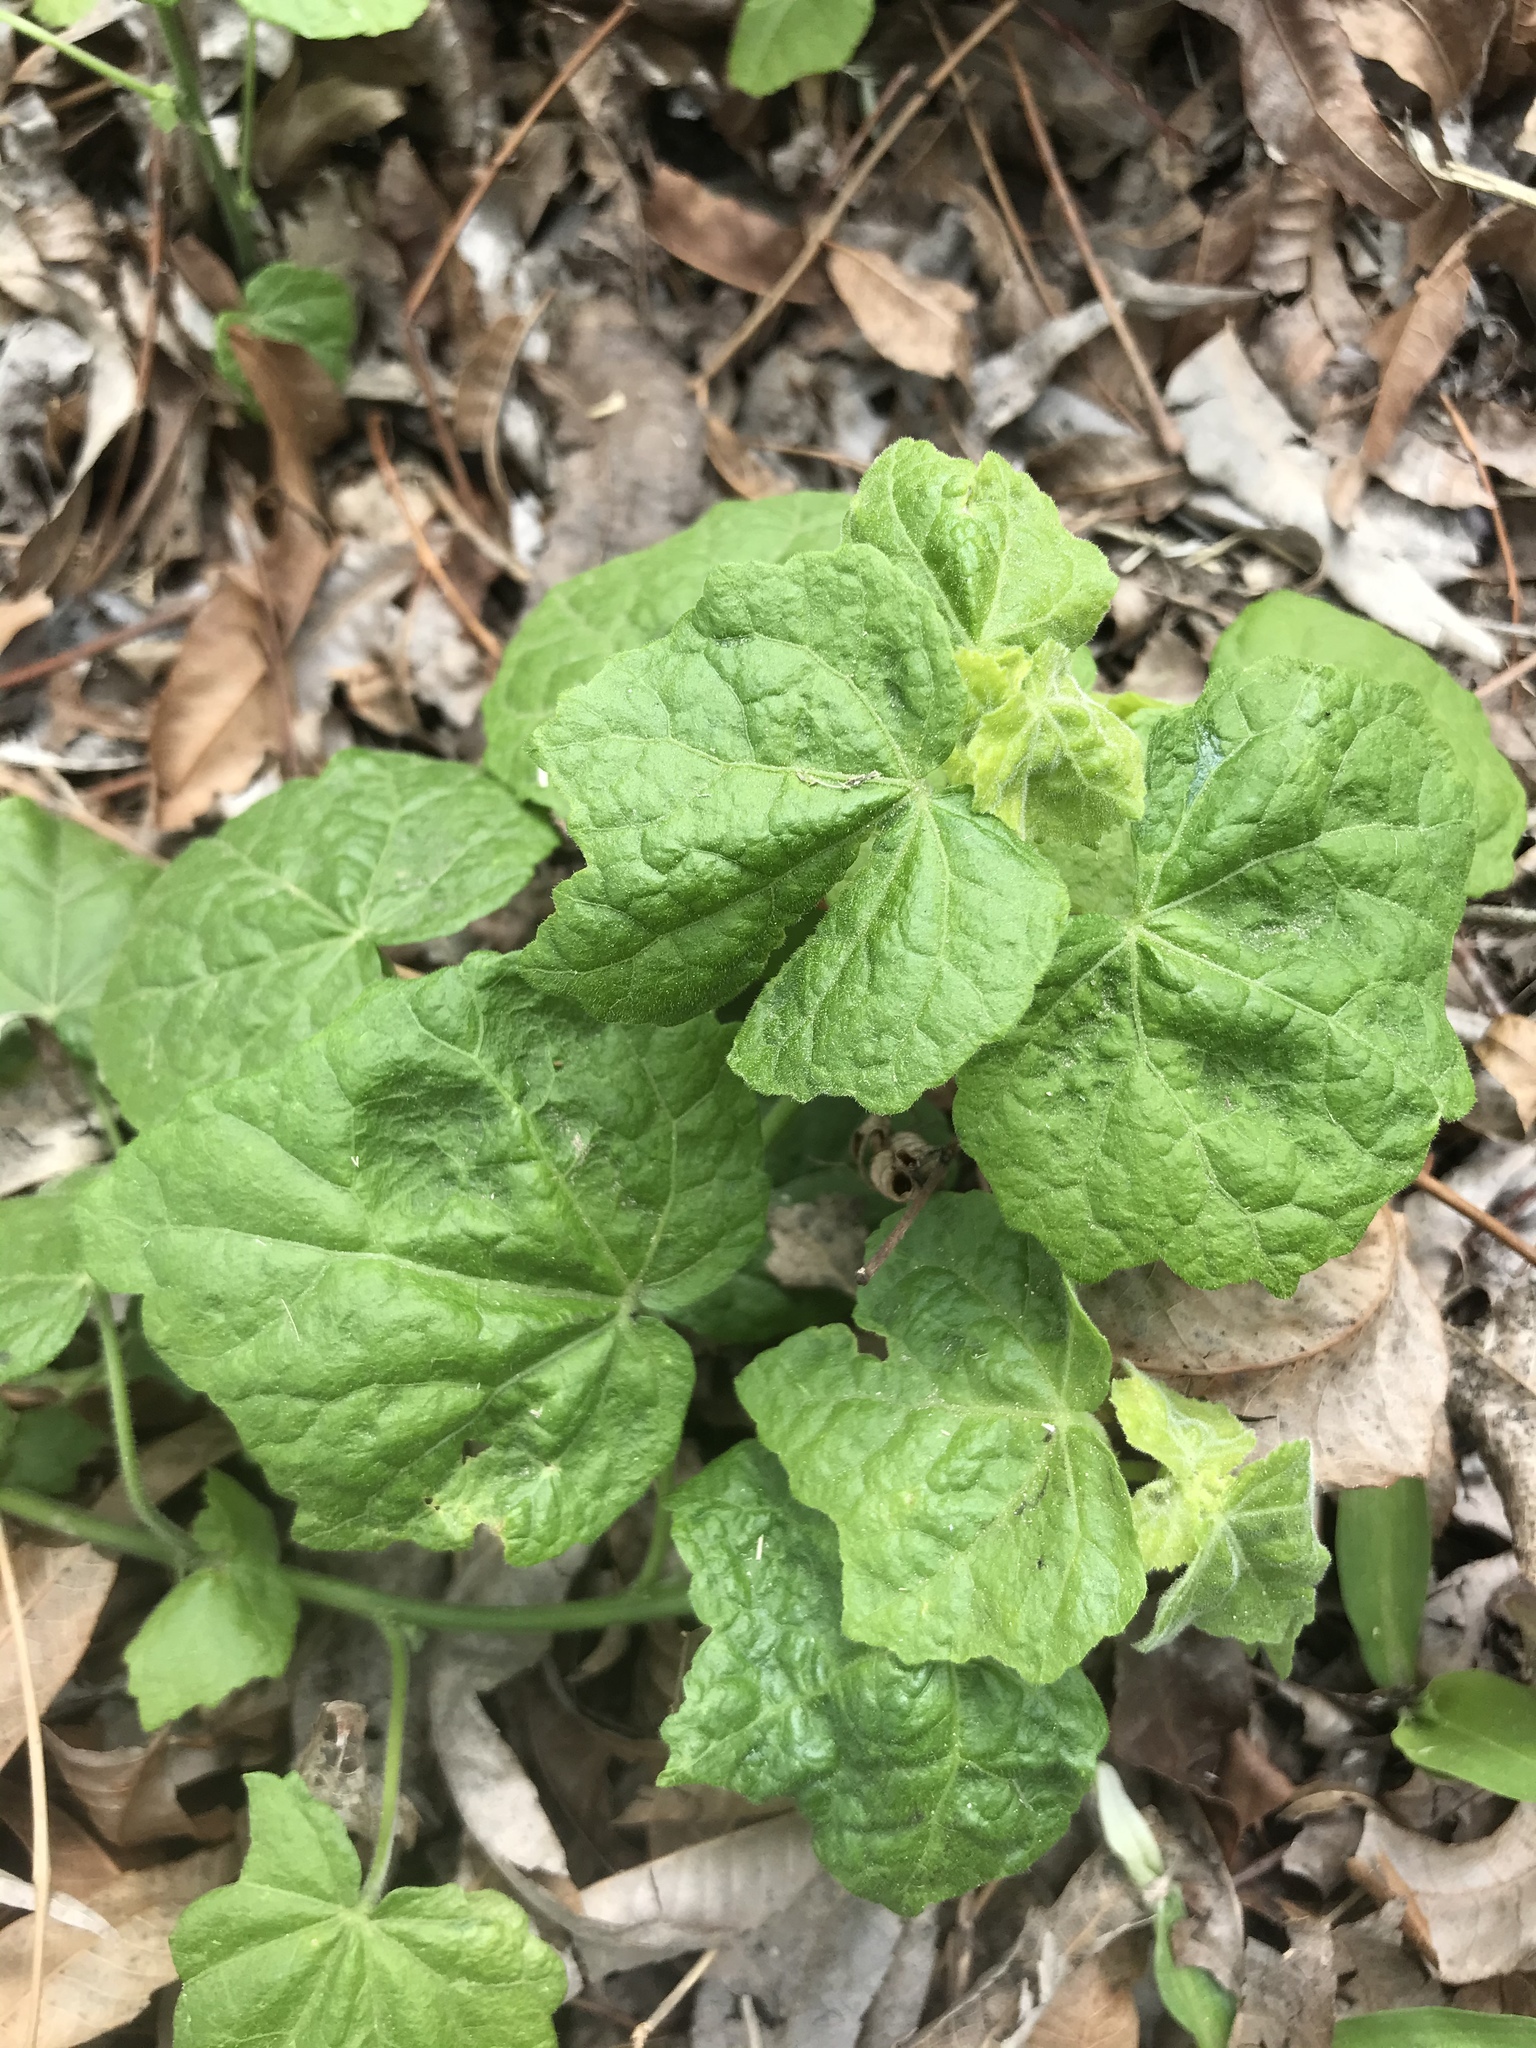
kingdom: Plantae
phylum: Tracheophyta
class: Magnoliopsida
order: Malvales
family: Malvaceae
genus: Malvaviscus
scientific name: Malvaviscus arboreus
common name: Wax mallow
